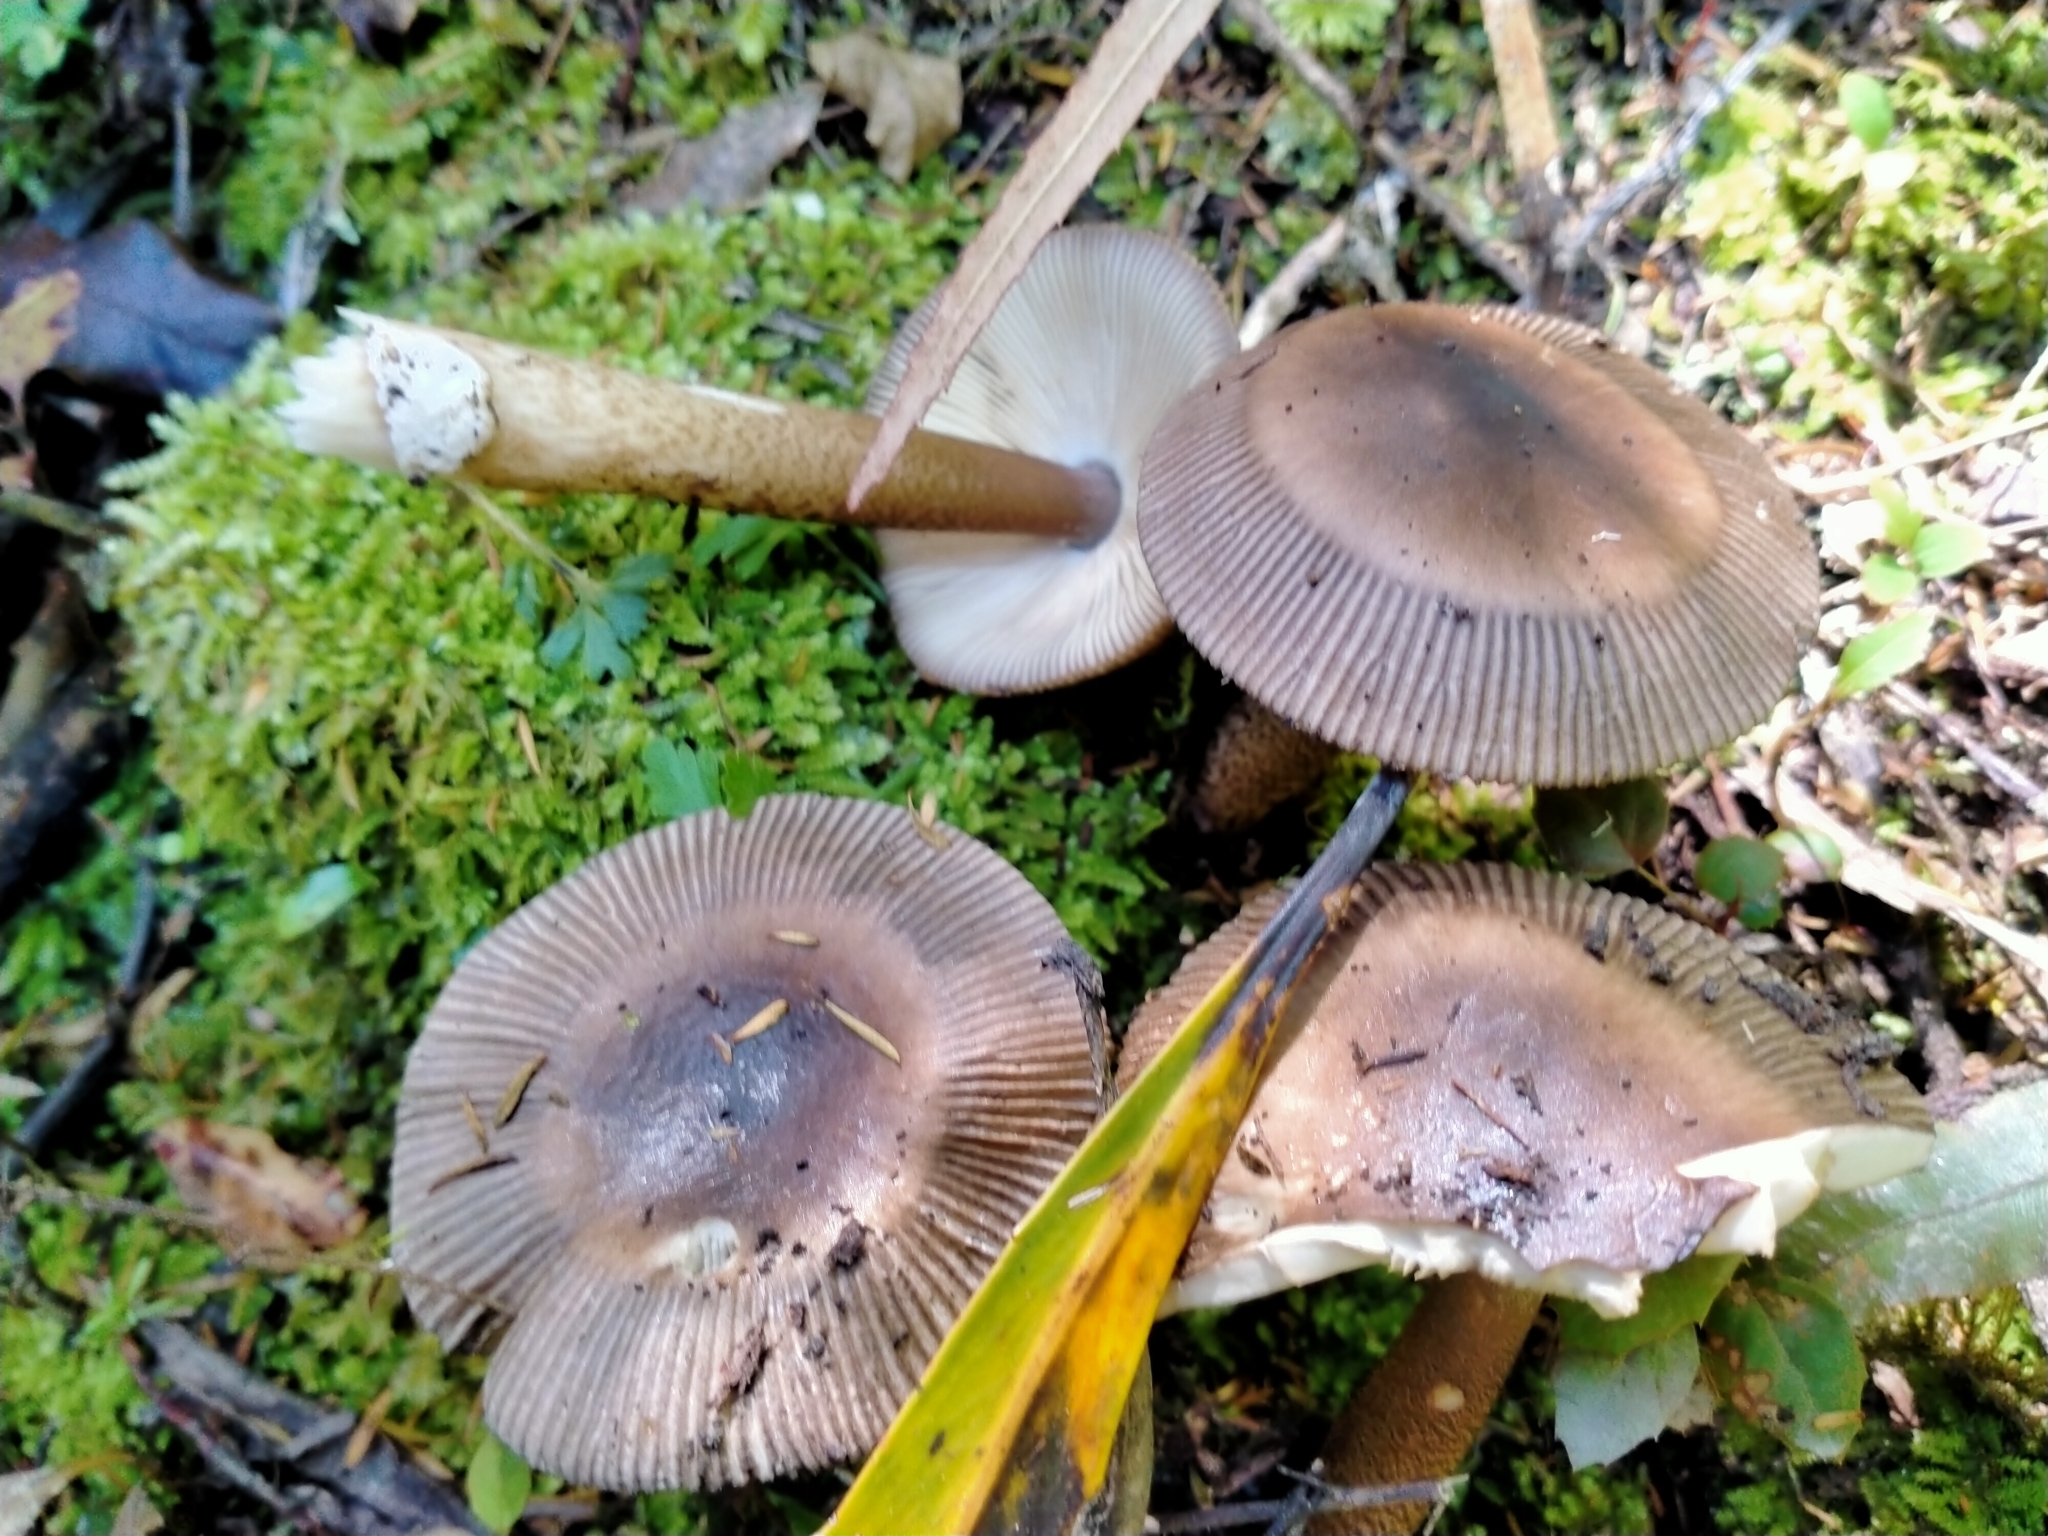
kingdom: Fungi
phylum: Basidiomycota
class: Agaricomycetes
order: Agaricales
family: Amanitaceae
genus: Amanita
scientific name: Amanita pekeoides
